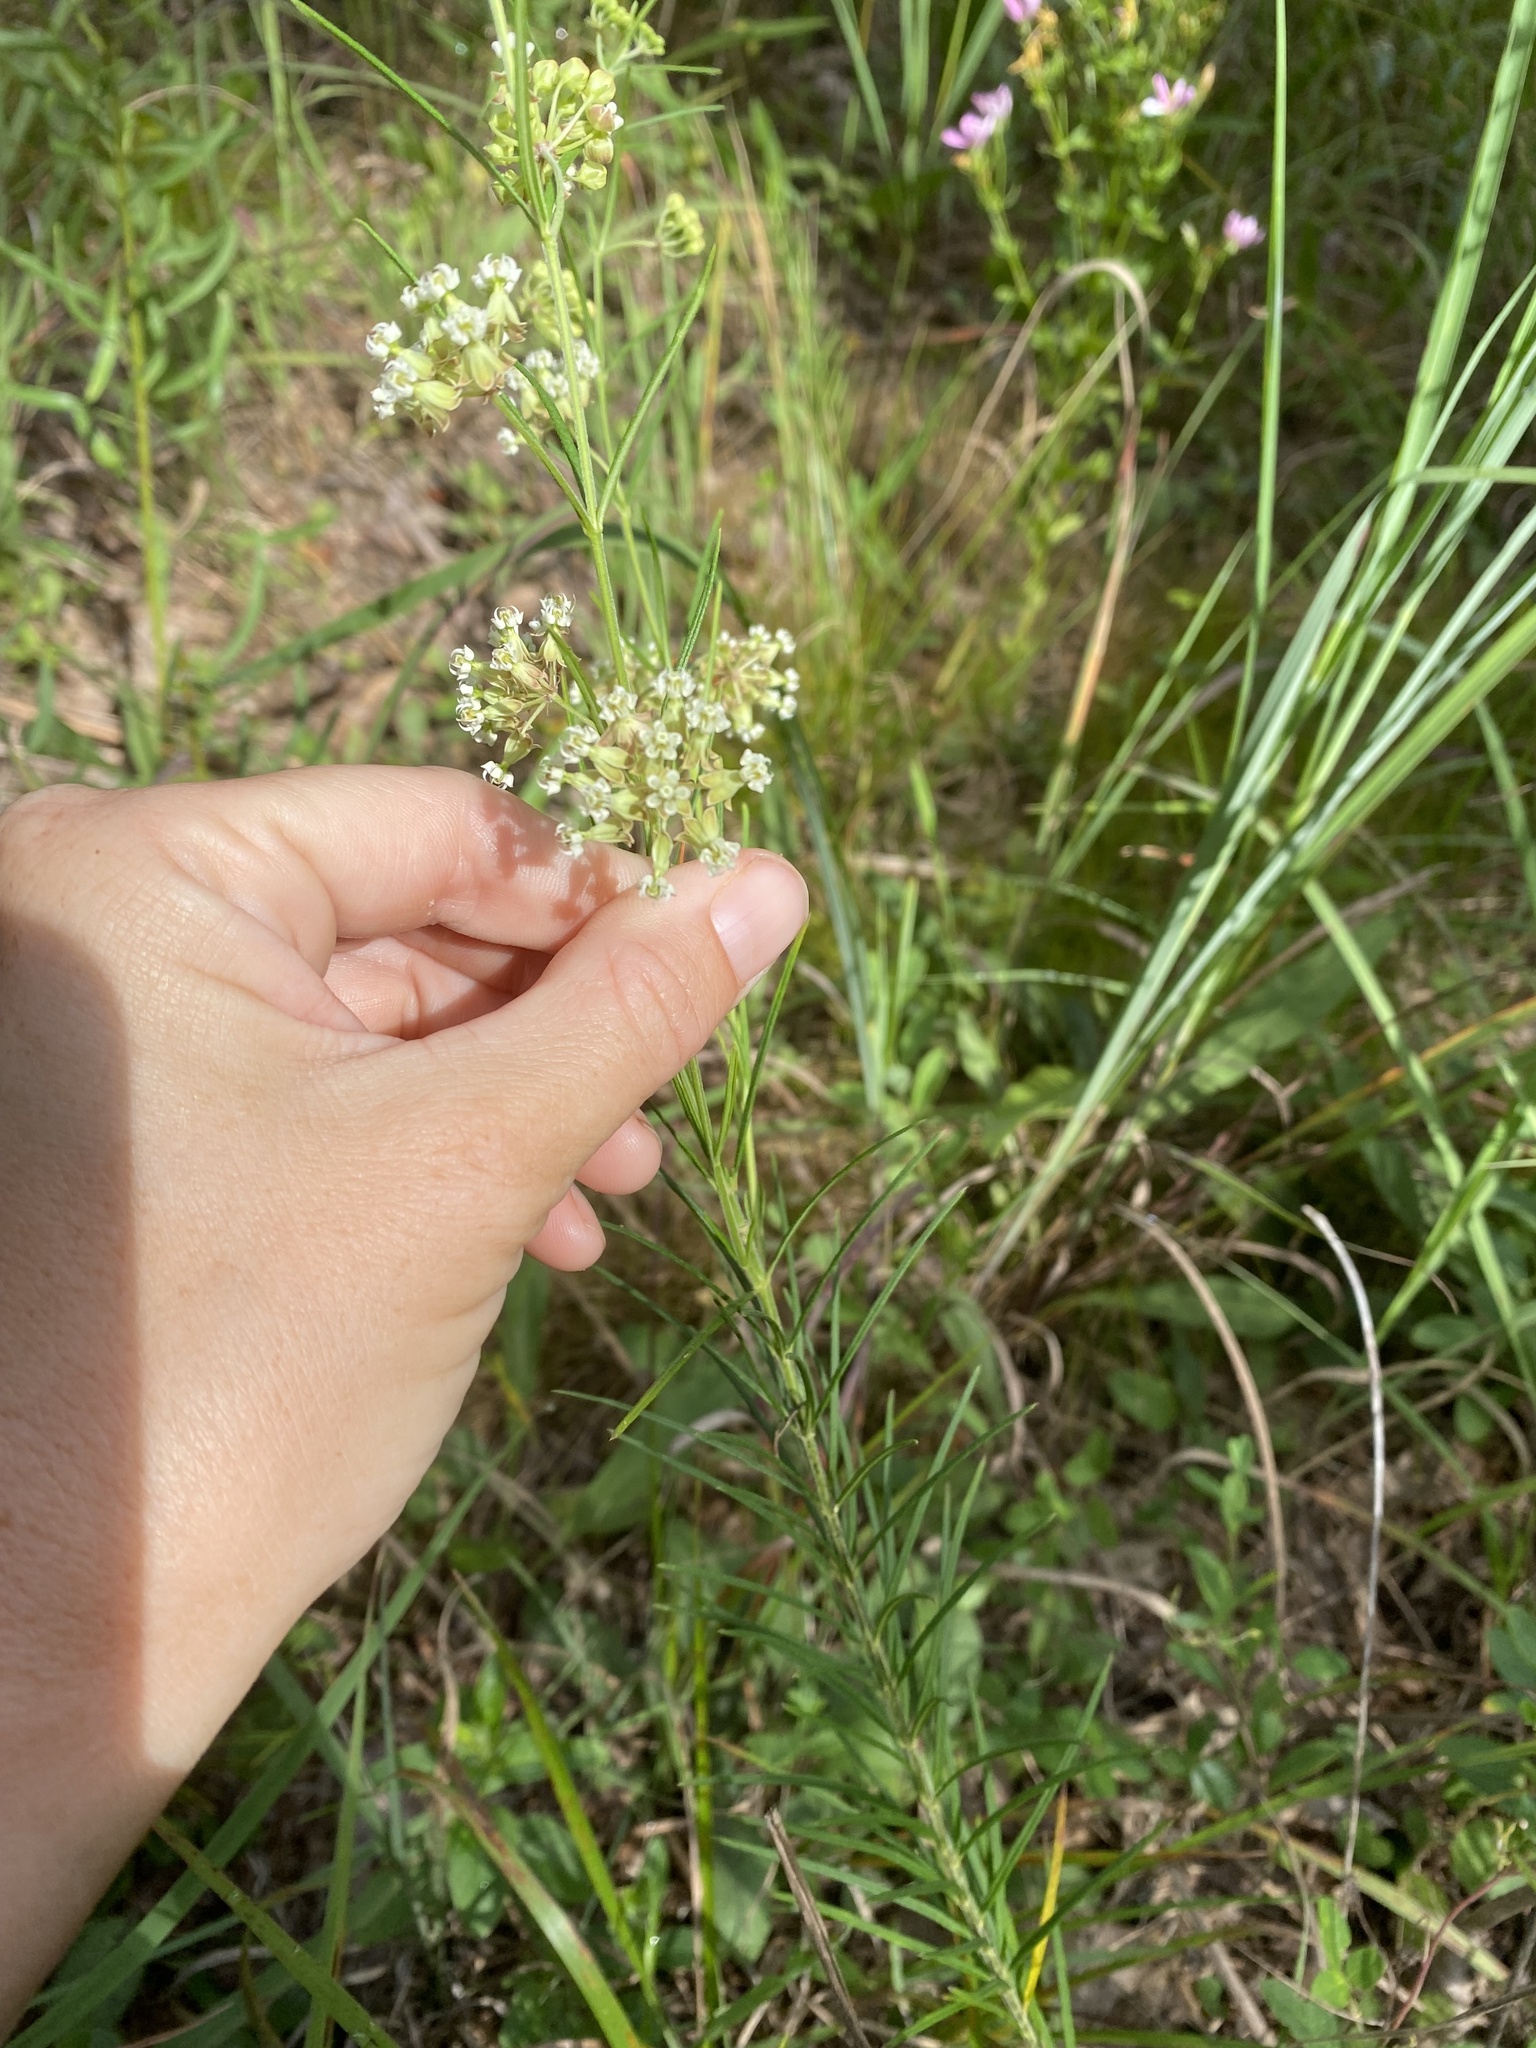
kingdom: Plantae
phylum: Tracheophyta
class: Magnoliopsida
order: Gentianales
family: Apocynaceae
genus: Asclepias
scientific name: Asclepias verticillata
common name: Eastern whorled milkweed
